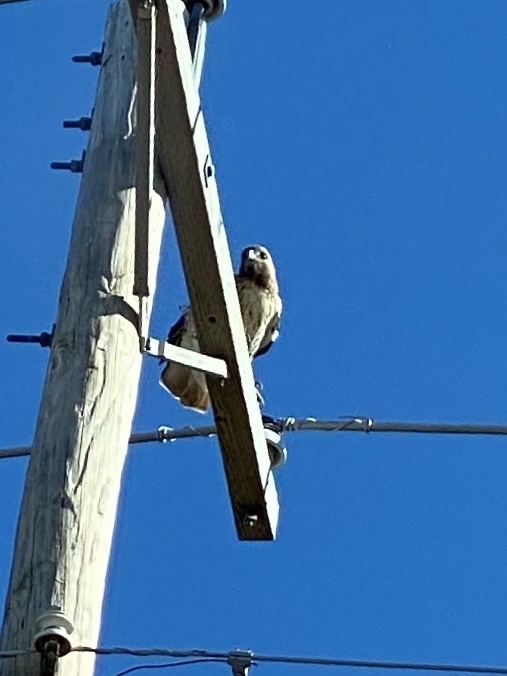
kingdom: Animalia
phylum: Chordata
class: Aves
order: Accipitriformes
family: Accipitridae
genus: Buteo
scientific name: Buteo jamaicensis
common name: Red-tailed hawk
